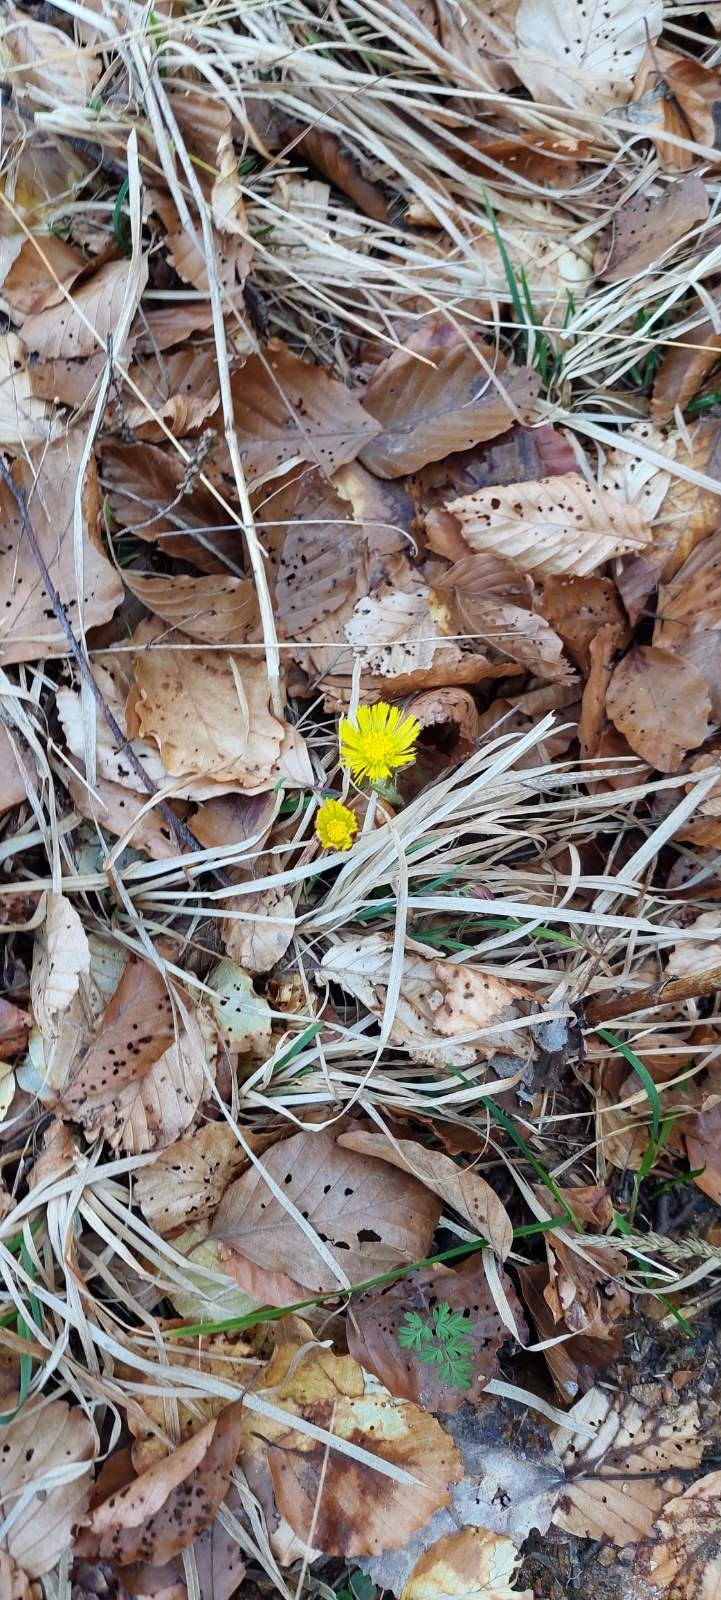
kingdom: Plantae
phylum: Tracheophyta
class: Magnoliopsida
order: Asterales
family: Asteraceae
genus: Tussilago
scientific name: Tussilago farfara
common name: Coltsfoot
